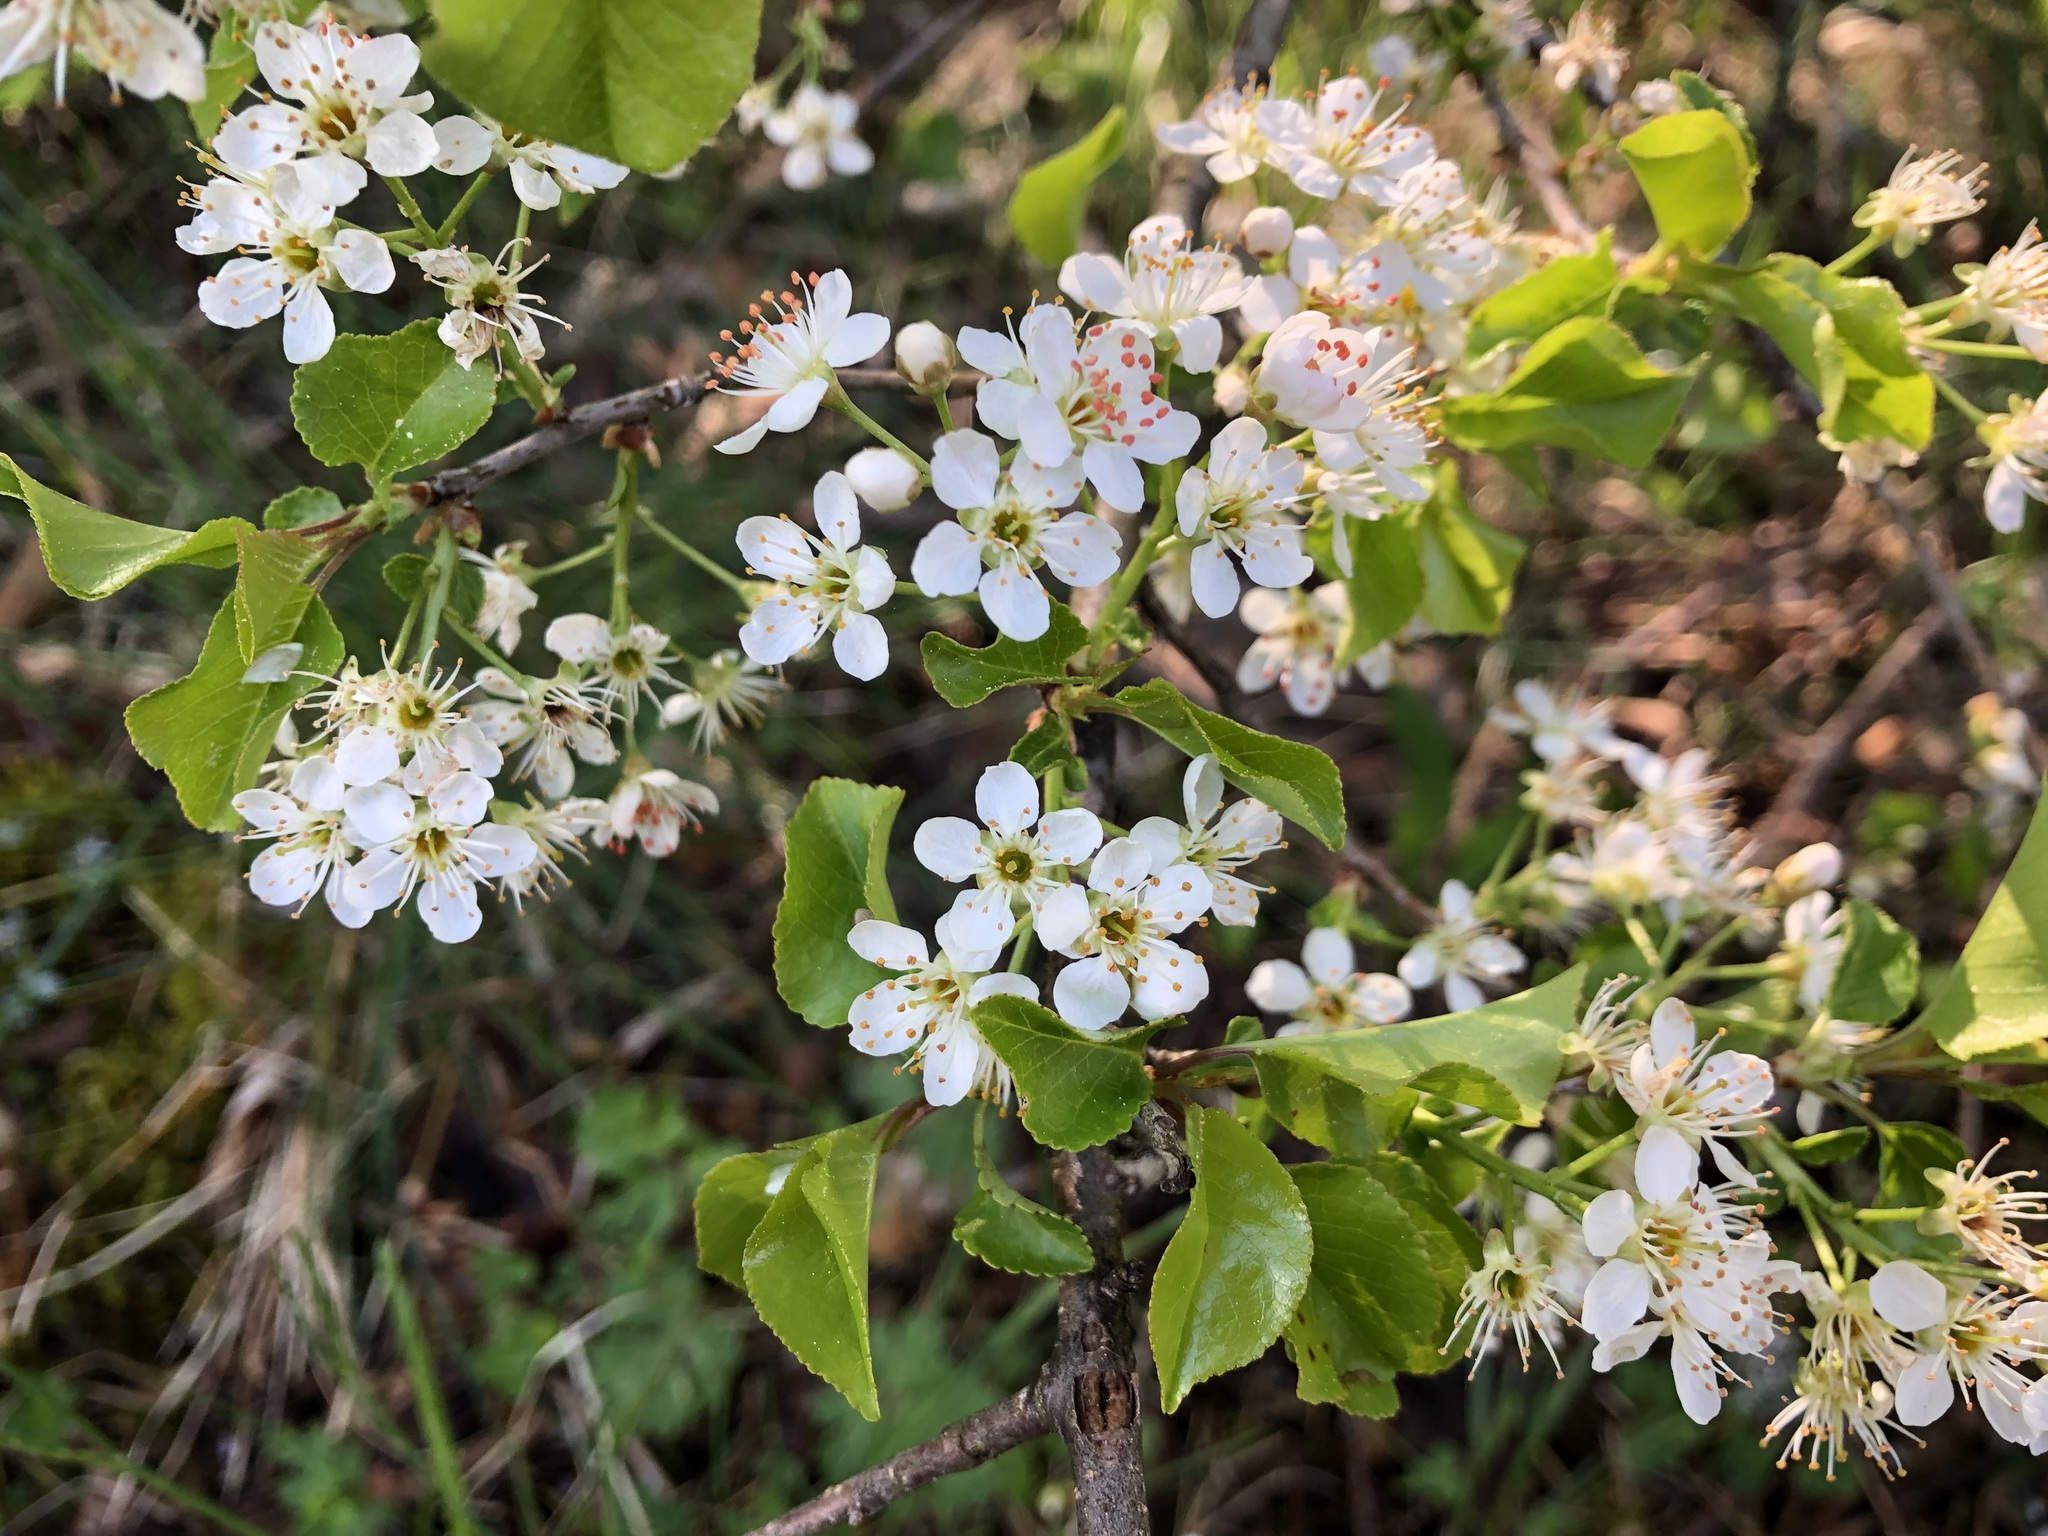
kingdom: Plantae
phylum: Tracheophyta
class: Magnoliopsida
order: Rosales
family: Rosaceae
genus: Prunus
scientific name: Prunus mahaleb
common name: Mahaleb cherry
